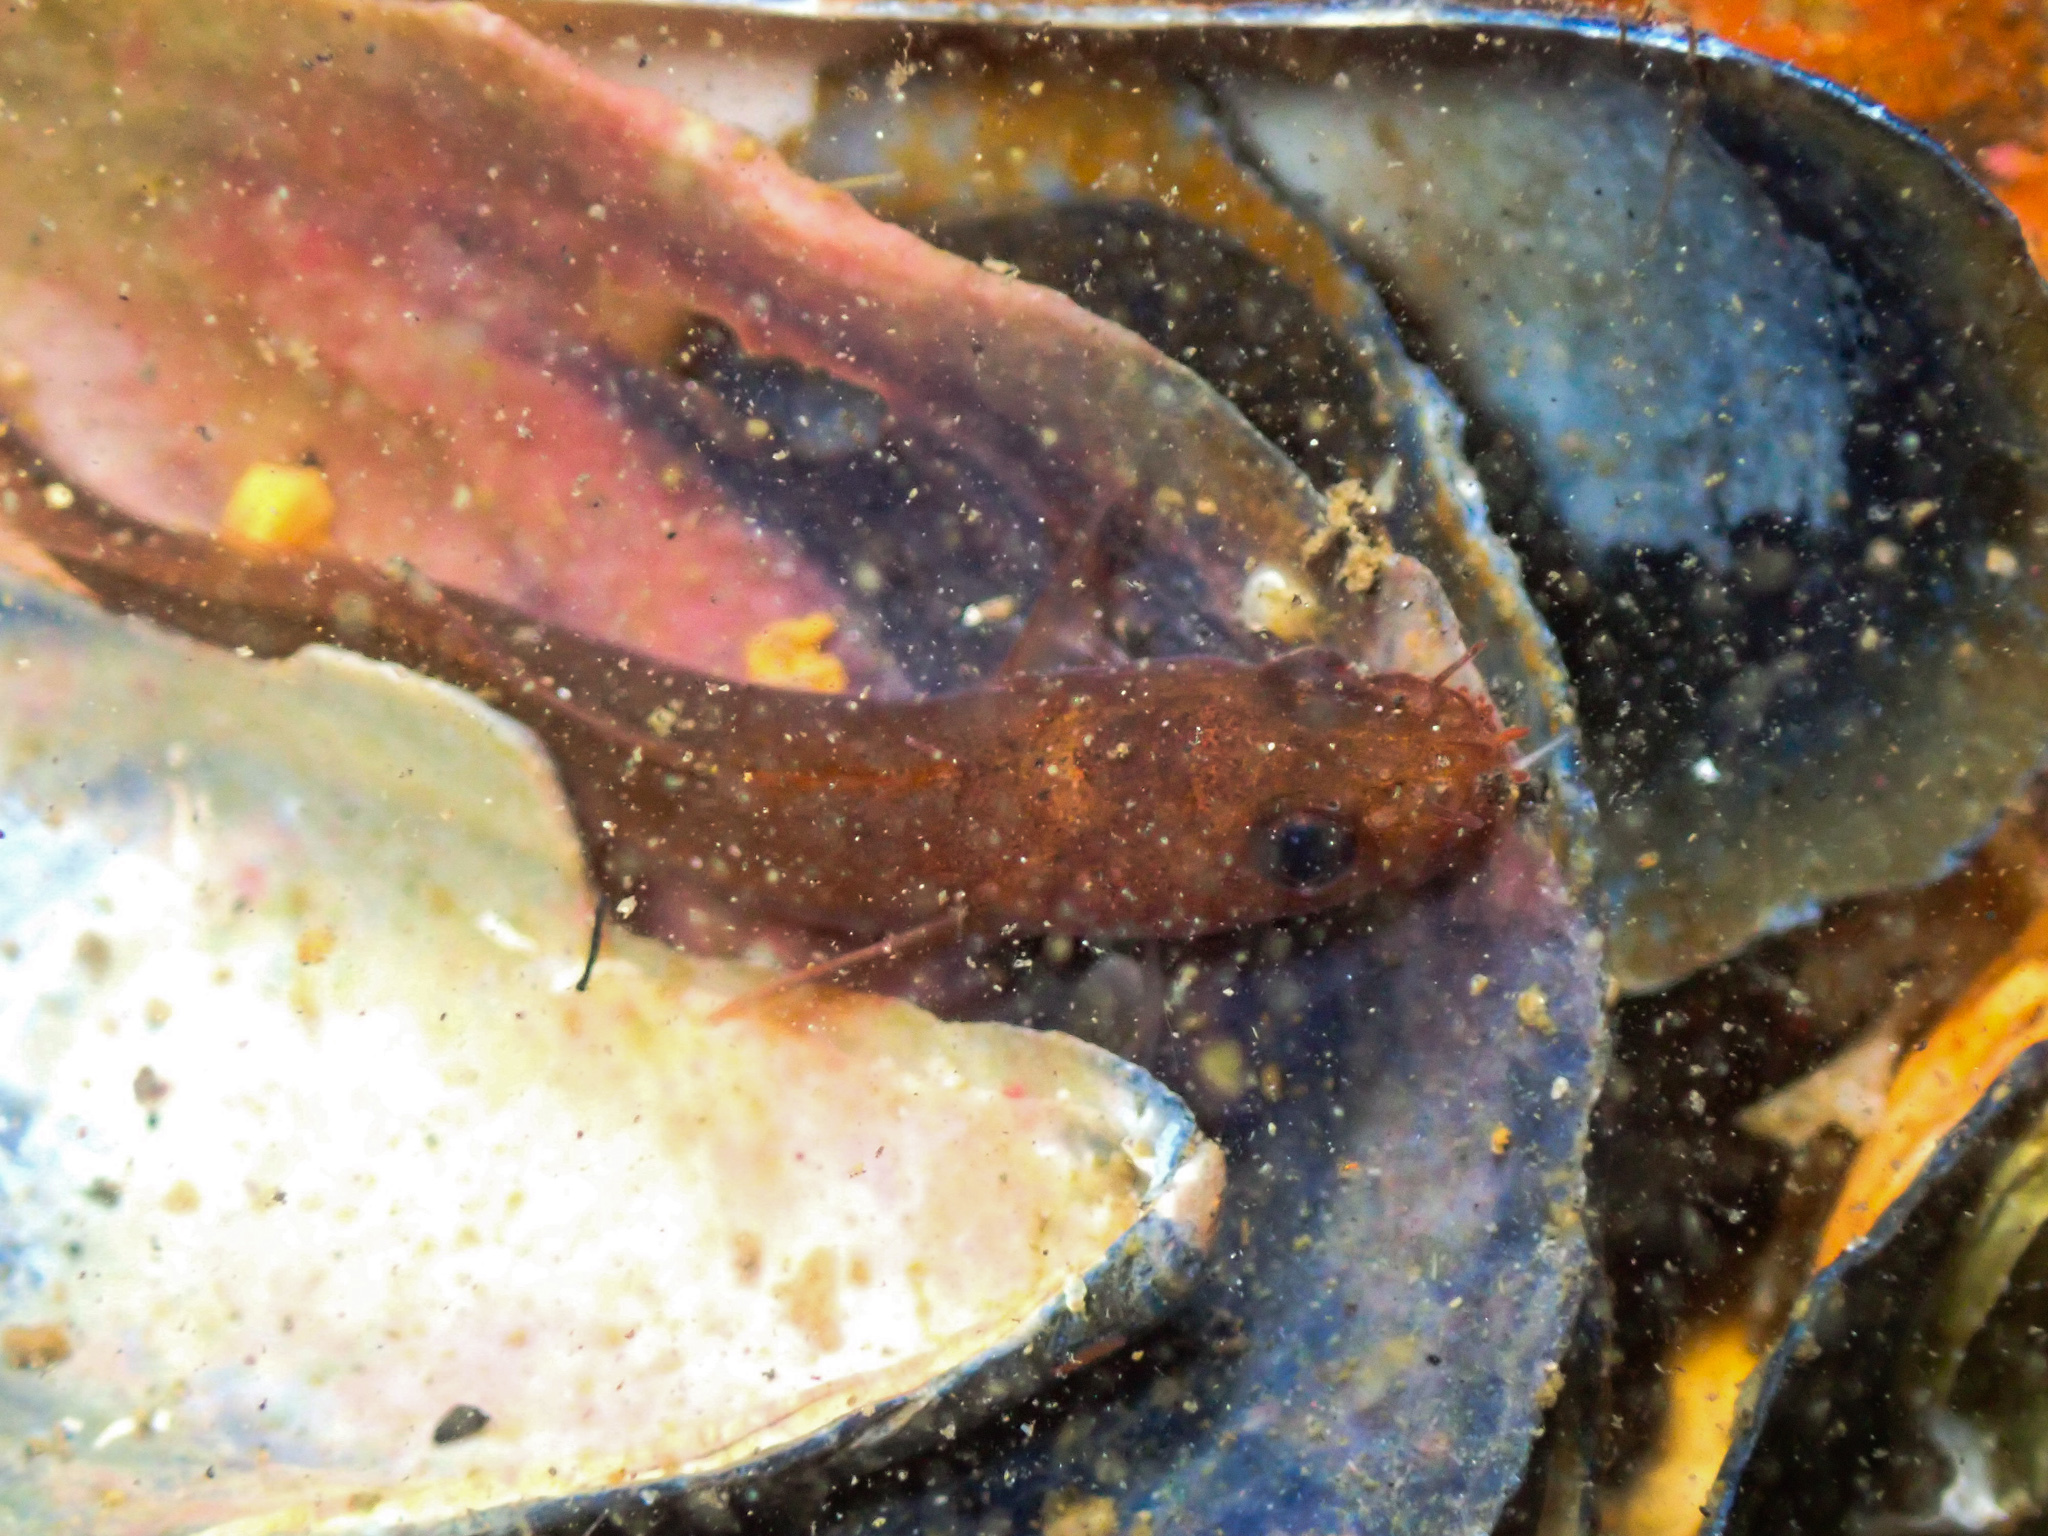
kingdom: Animalia
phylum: Chordata
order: Gadiformes
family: Lotidae
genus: Ciliata
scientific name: Ciliata septentrionalis
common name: Northern rockling
